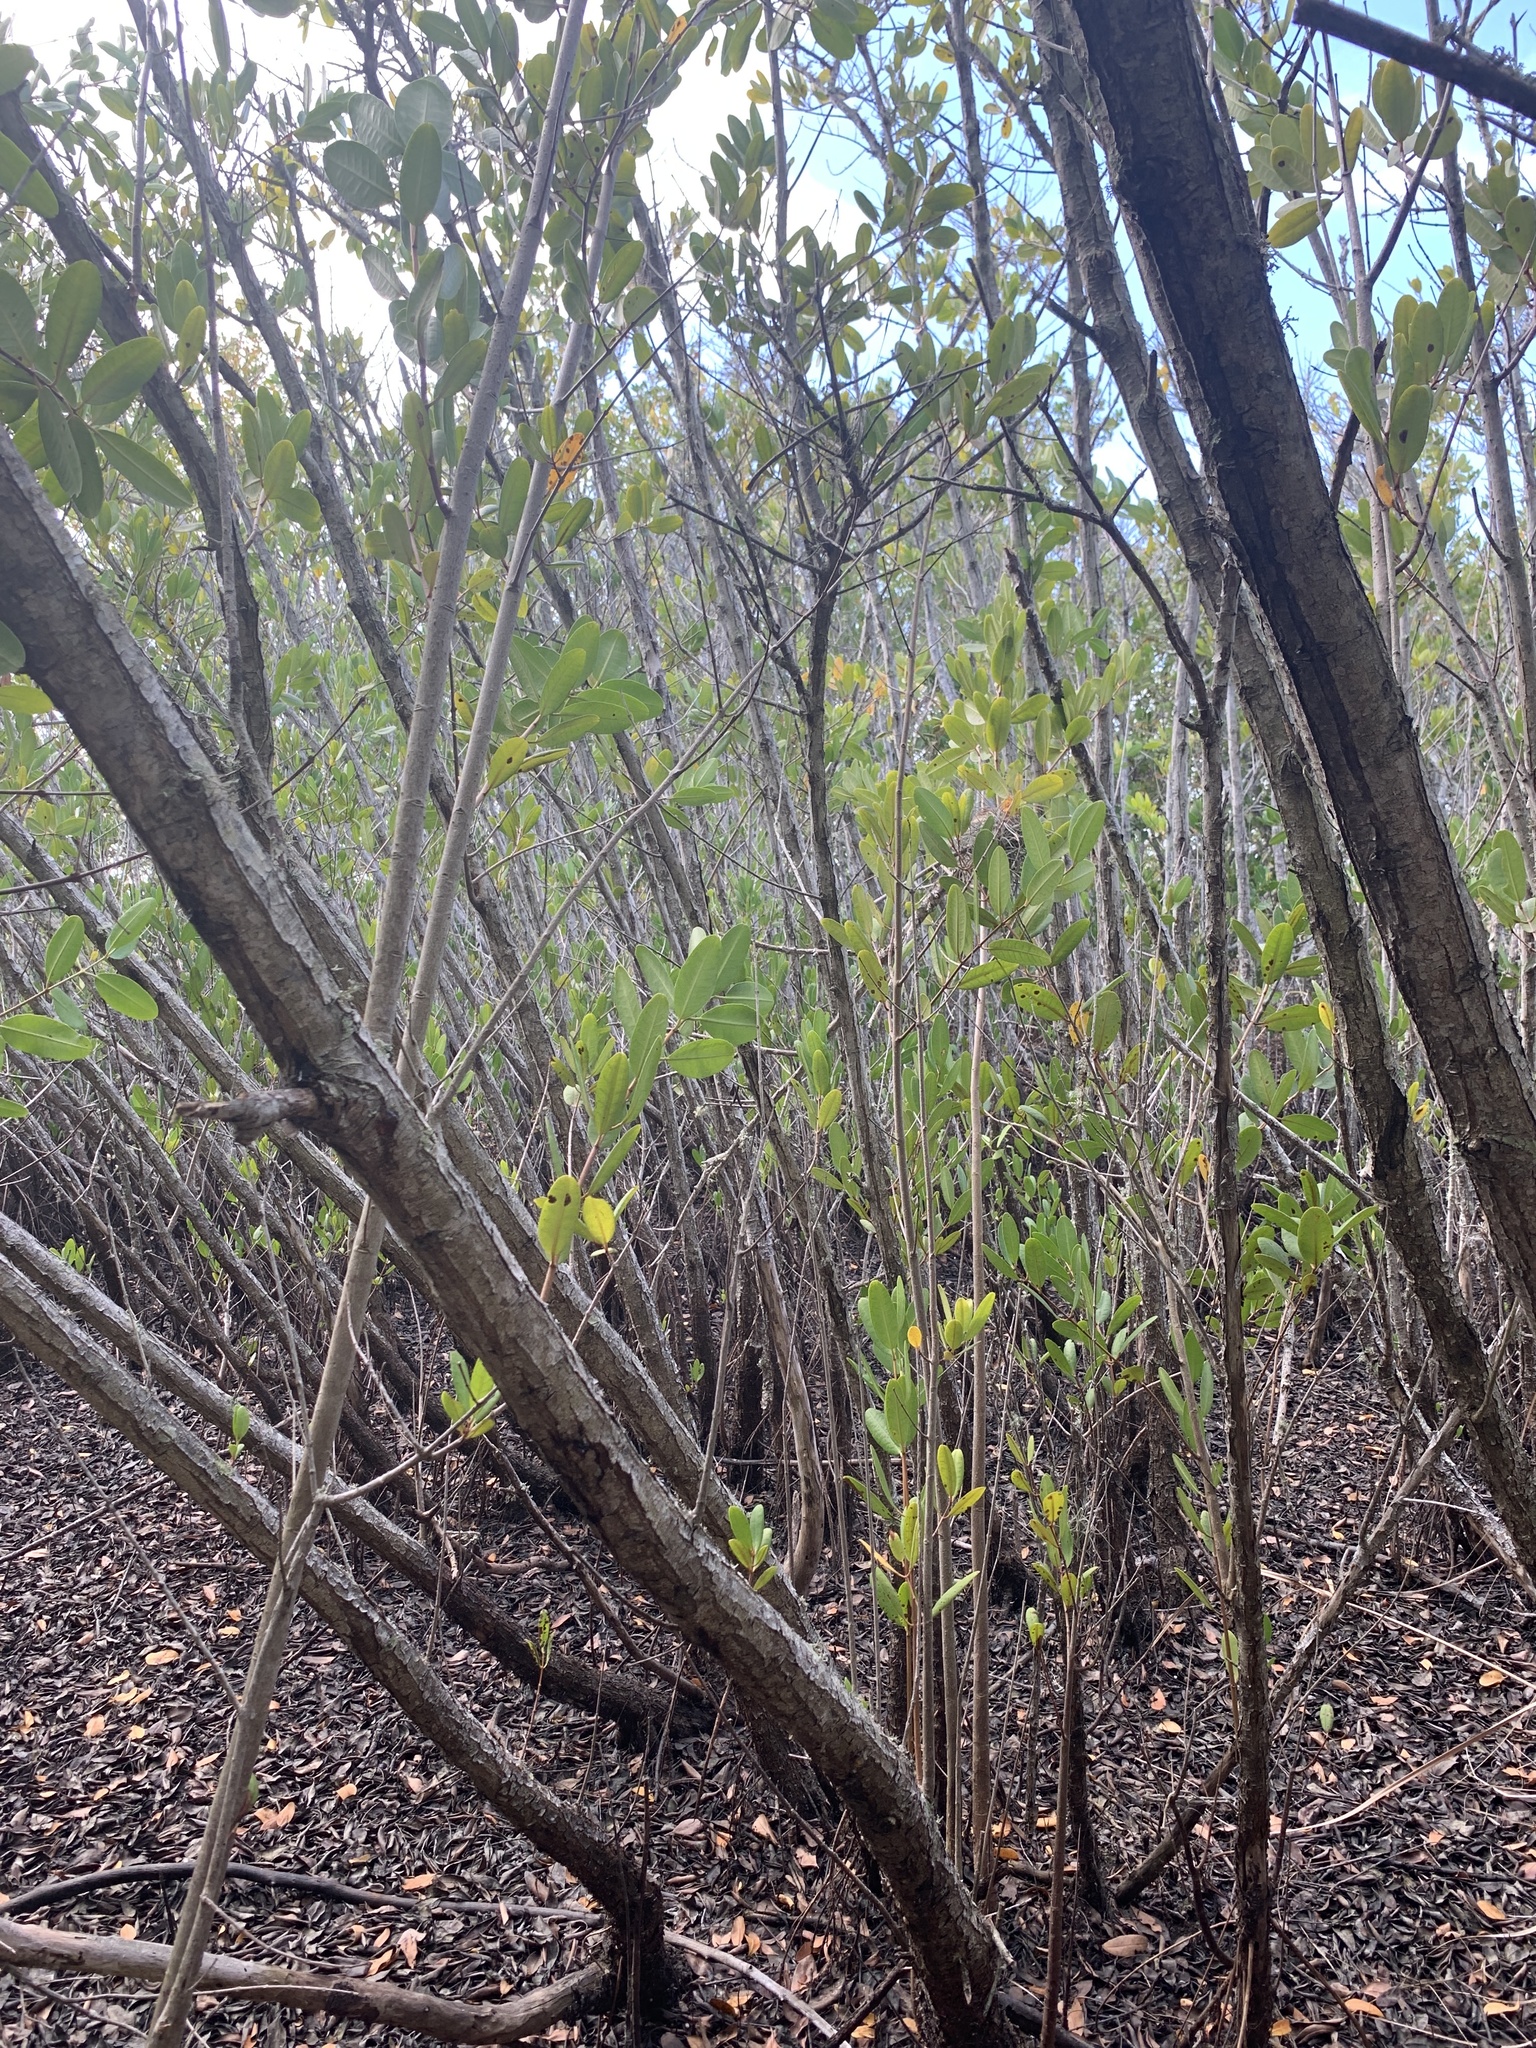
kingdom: Plantae
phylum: Tracheophyta
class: Magnoliopsida
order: Myrtales
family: Combretaceae
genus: Laguncularia
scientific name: Laguncularia racemosa
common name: White mangrove
